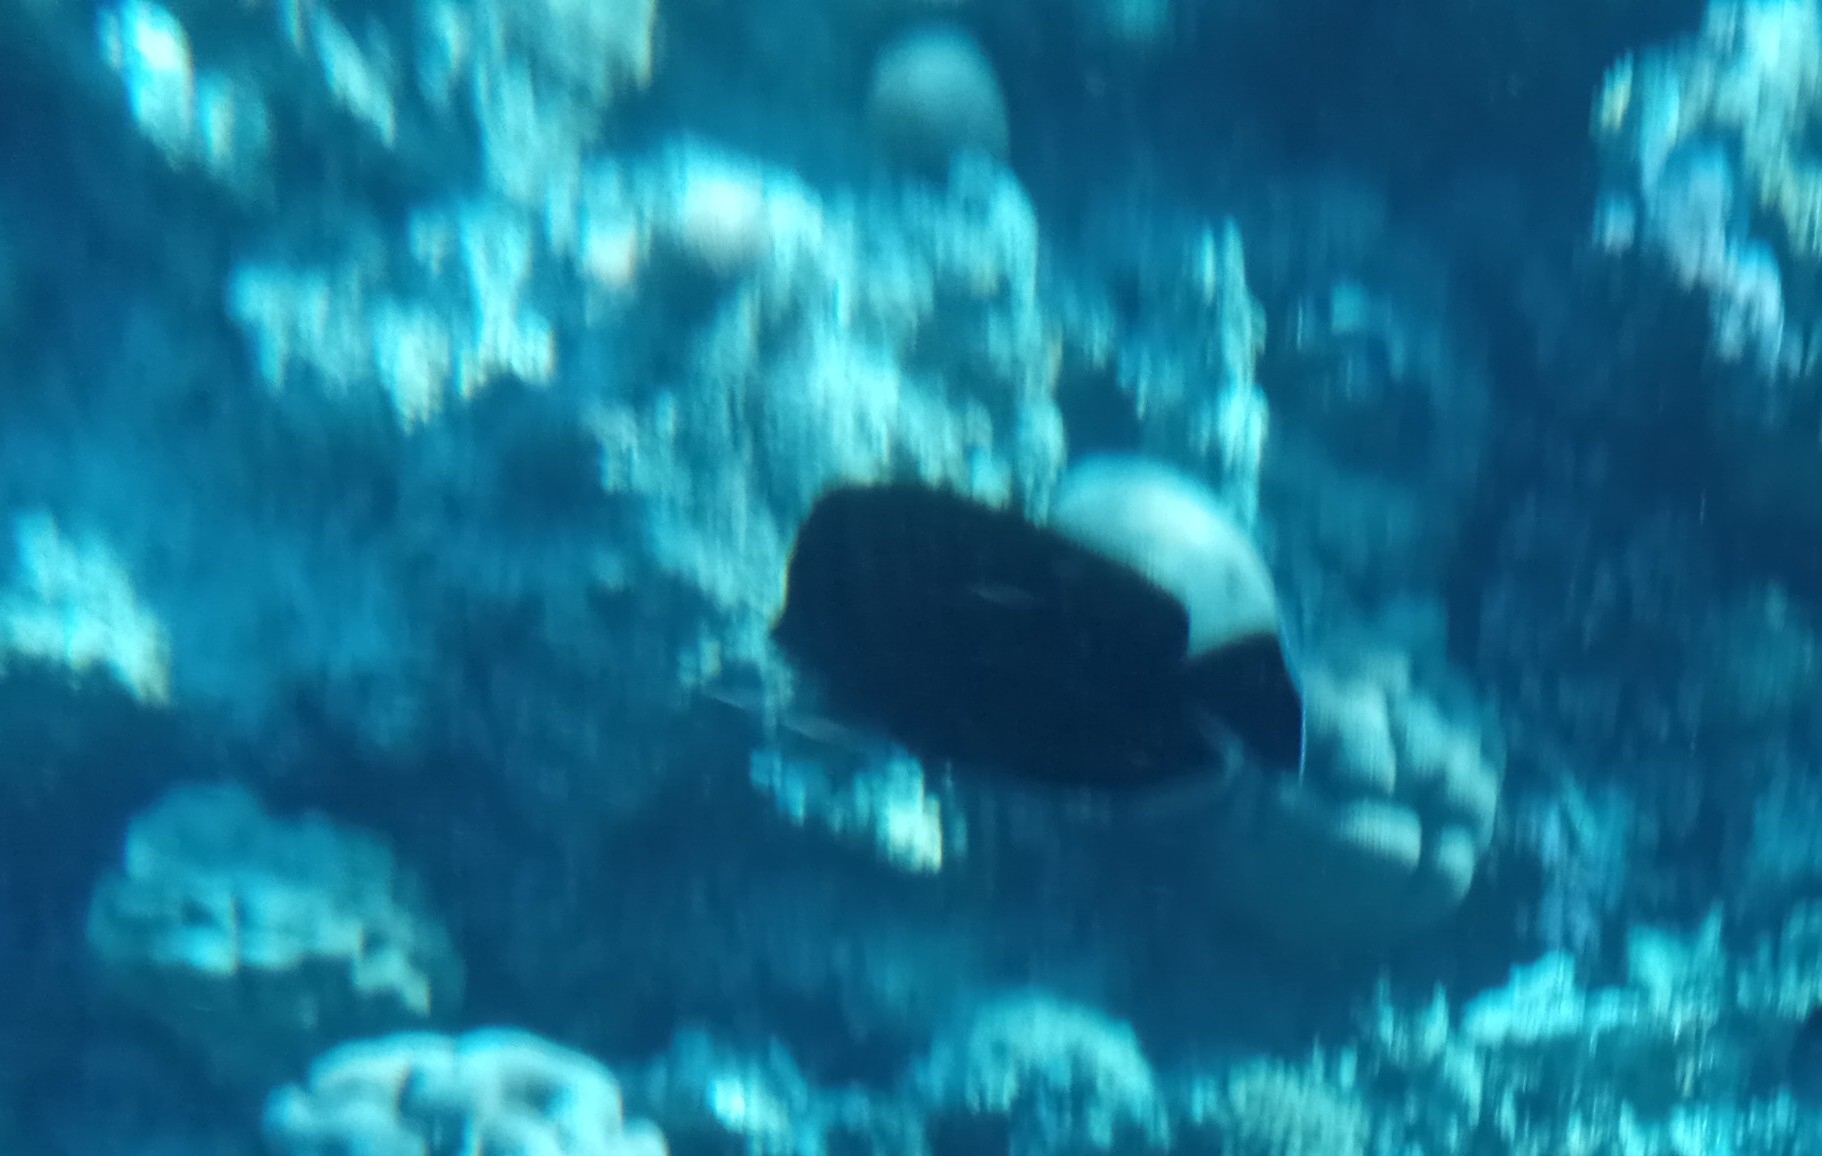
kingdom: Animalia
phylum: Chordata
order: Perciformes
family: Acanthuridae
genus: Zebrasoma
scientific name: Zebrasoma desjardinii
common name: Desjardin's sailfin tang
